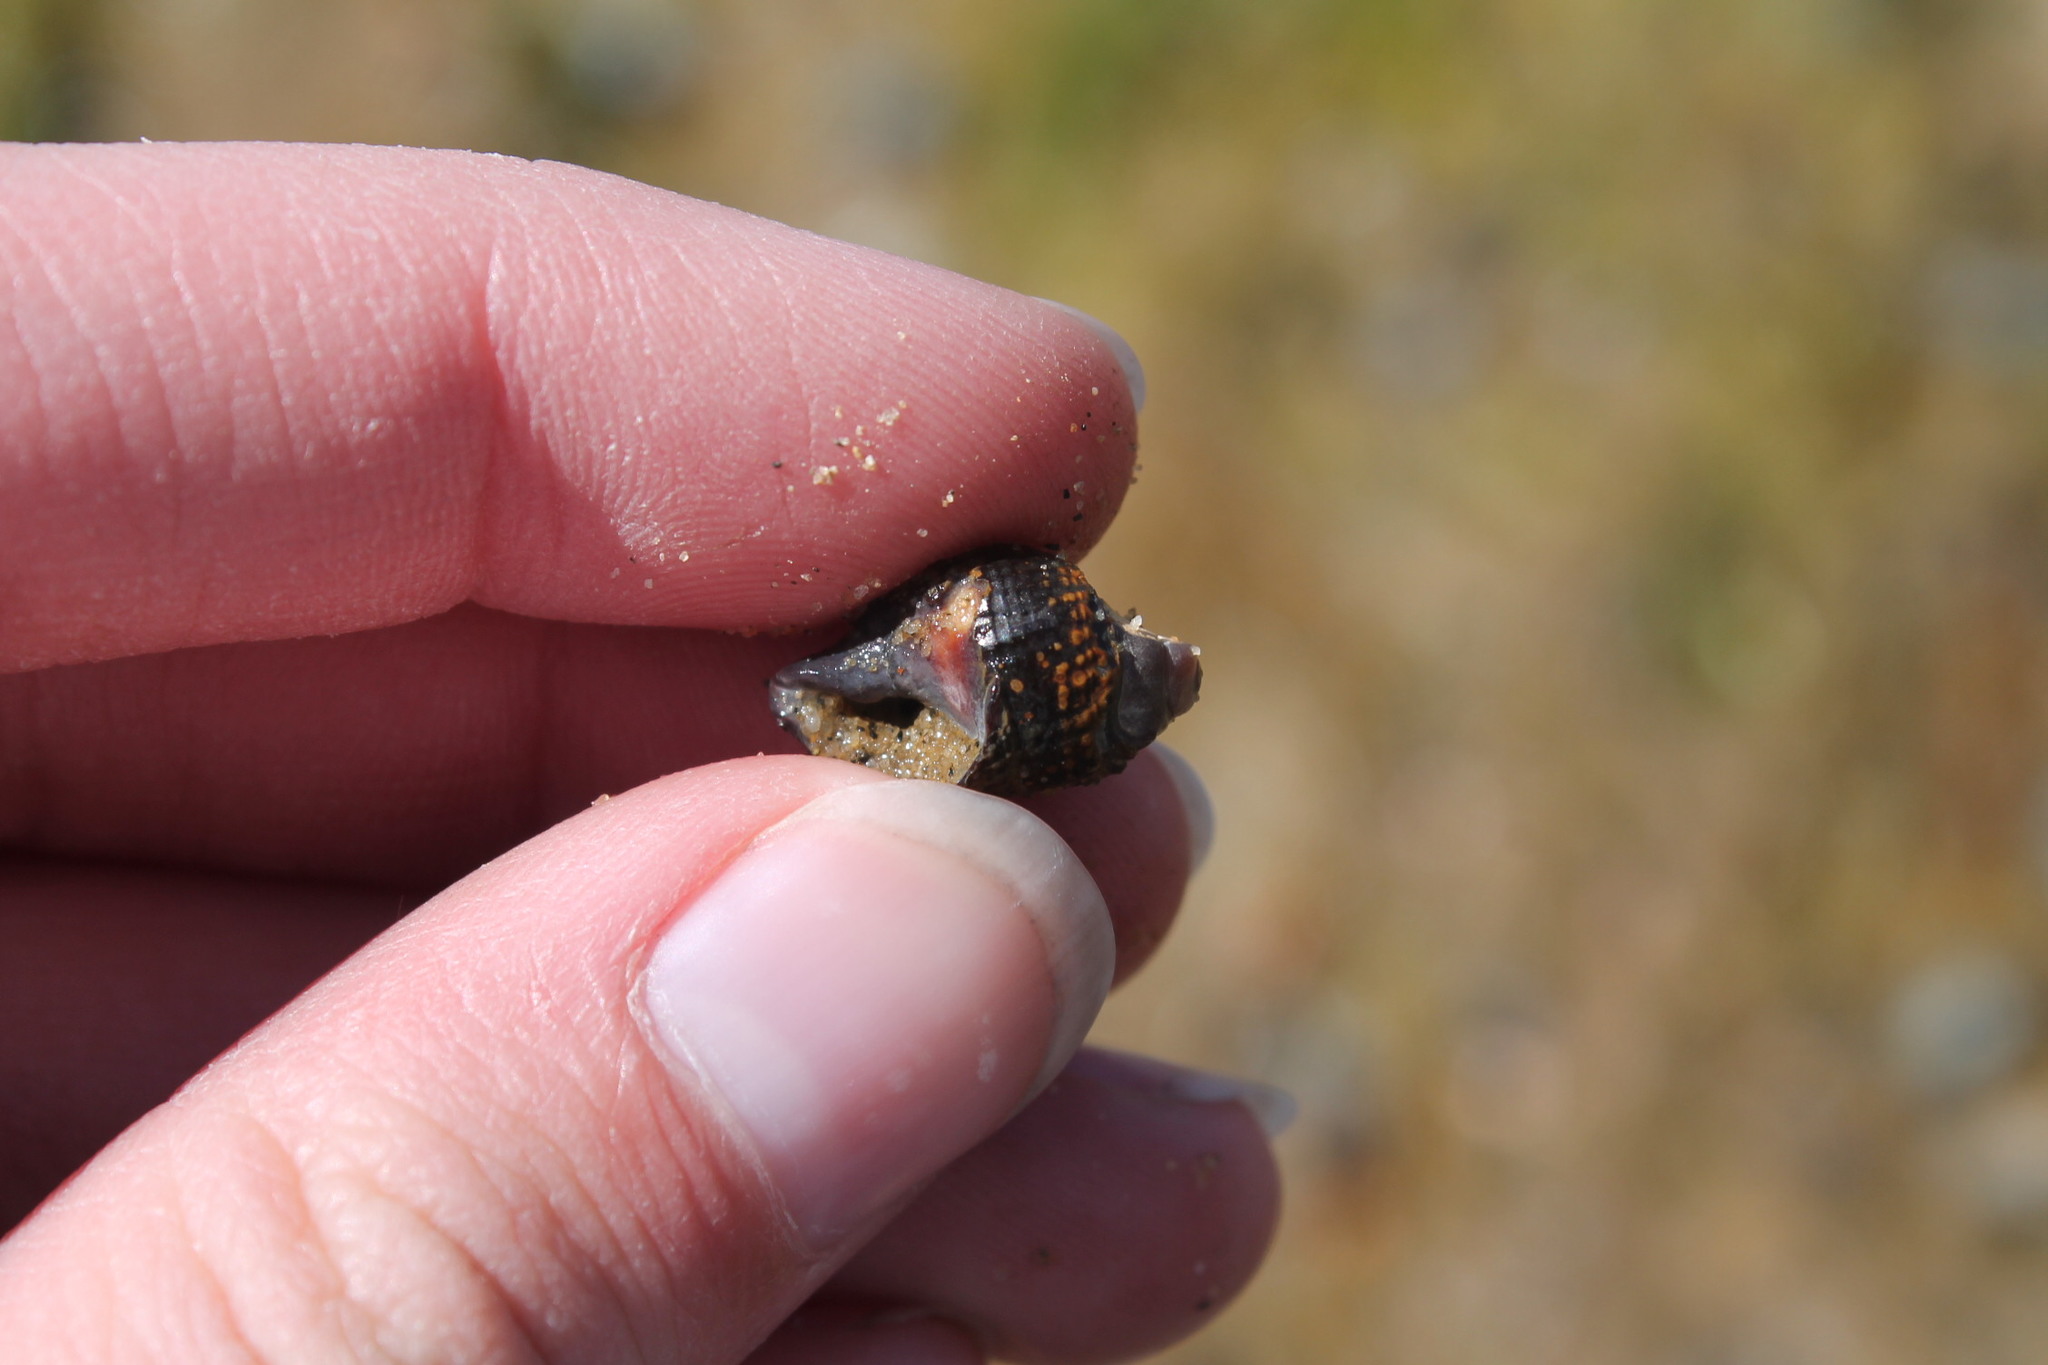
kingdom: Animalia
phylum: Mollusca
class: Gastropoda
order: Neogastropoda
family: Nassariidae
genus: Ilyanassa
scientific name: Ilyanassa obsoleta
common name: Eastern mudsnail
